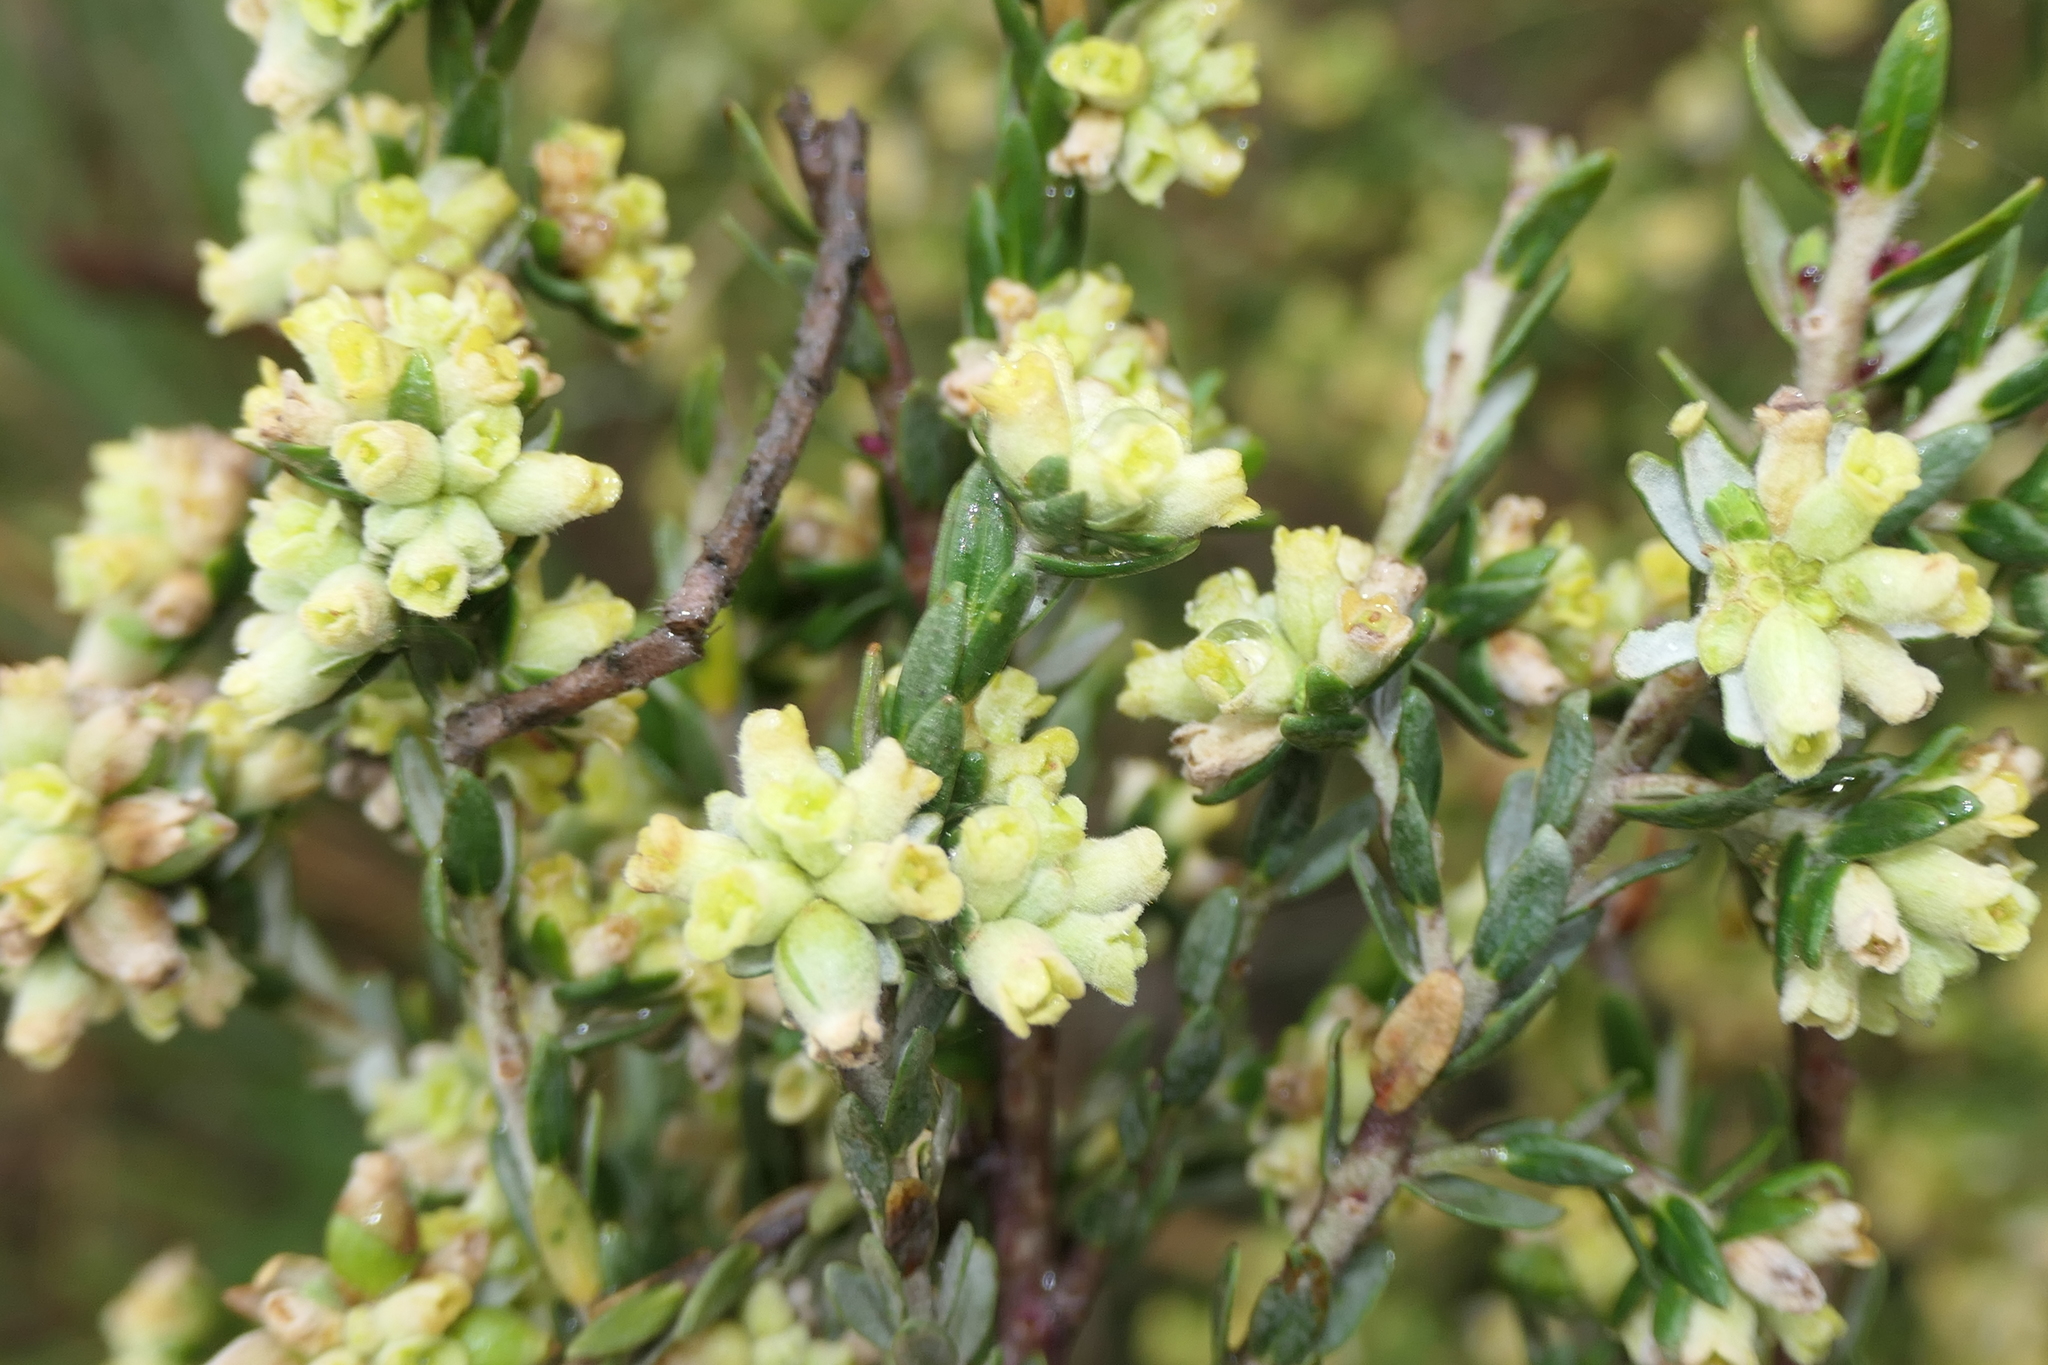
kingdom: Plantae
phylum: Tracheophyta
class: Magnoliopsida
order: Malvales
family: Thymelaeaceae
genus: Thymelaea
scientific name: Thymelaea lythroides
